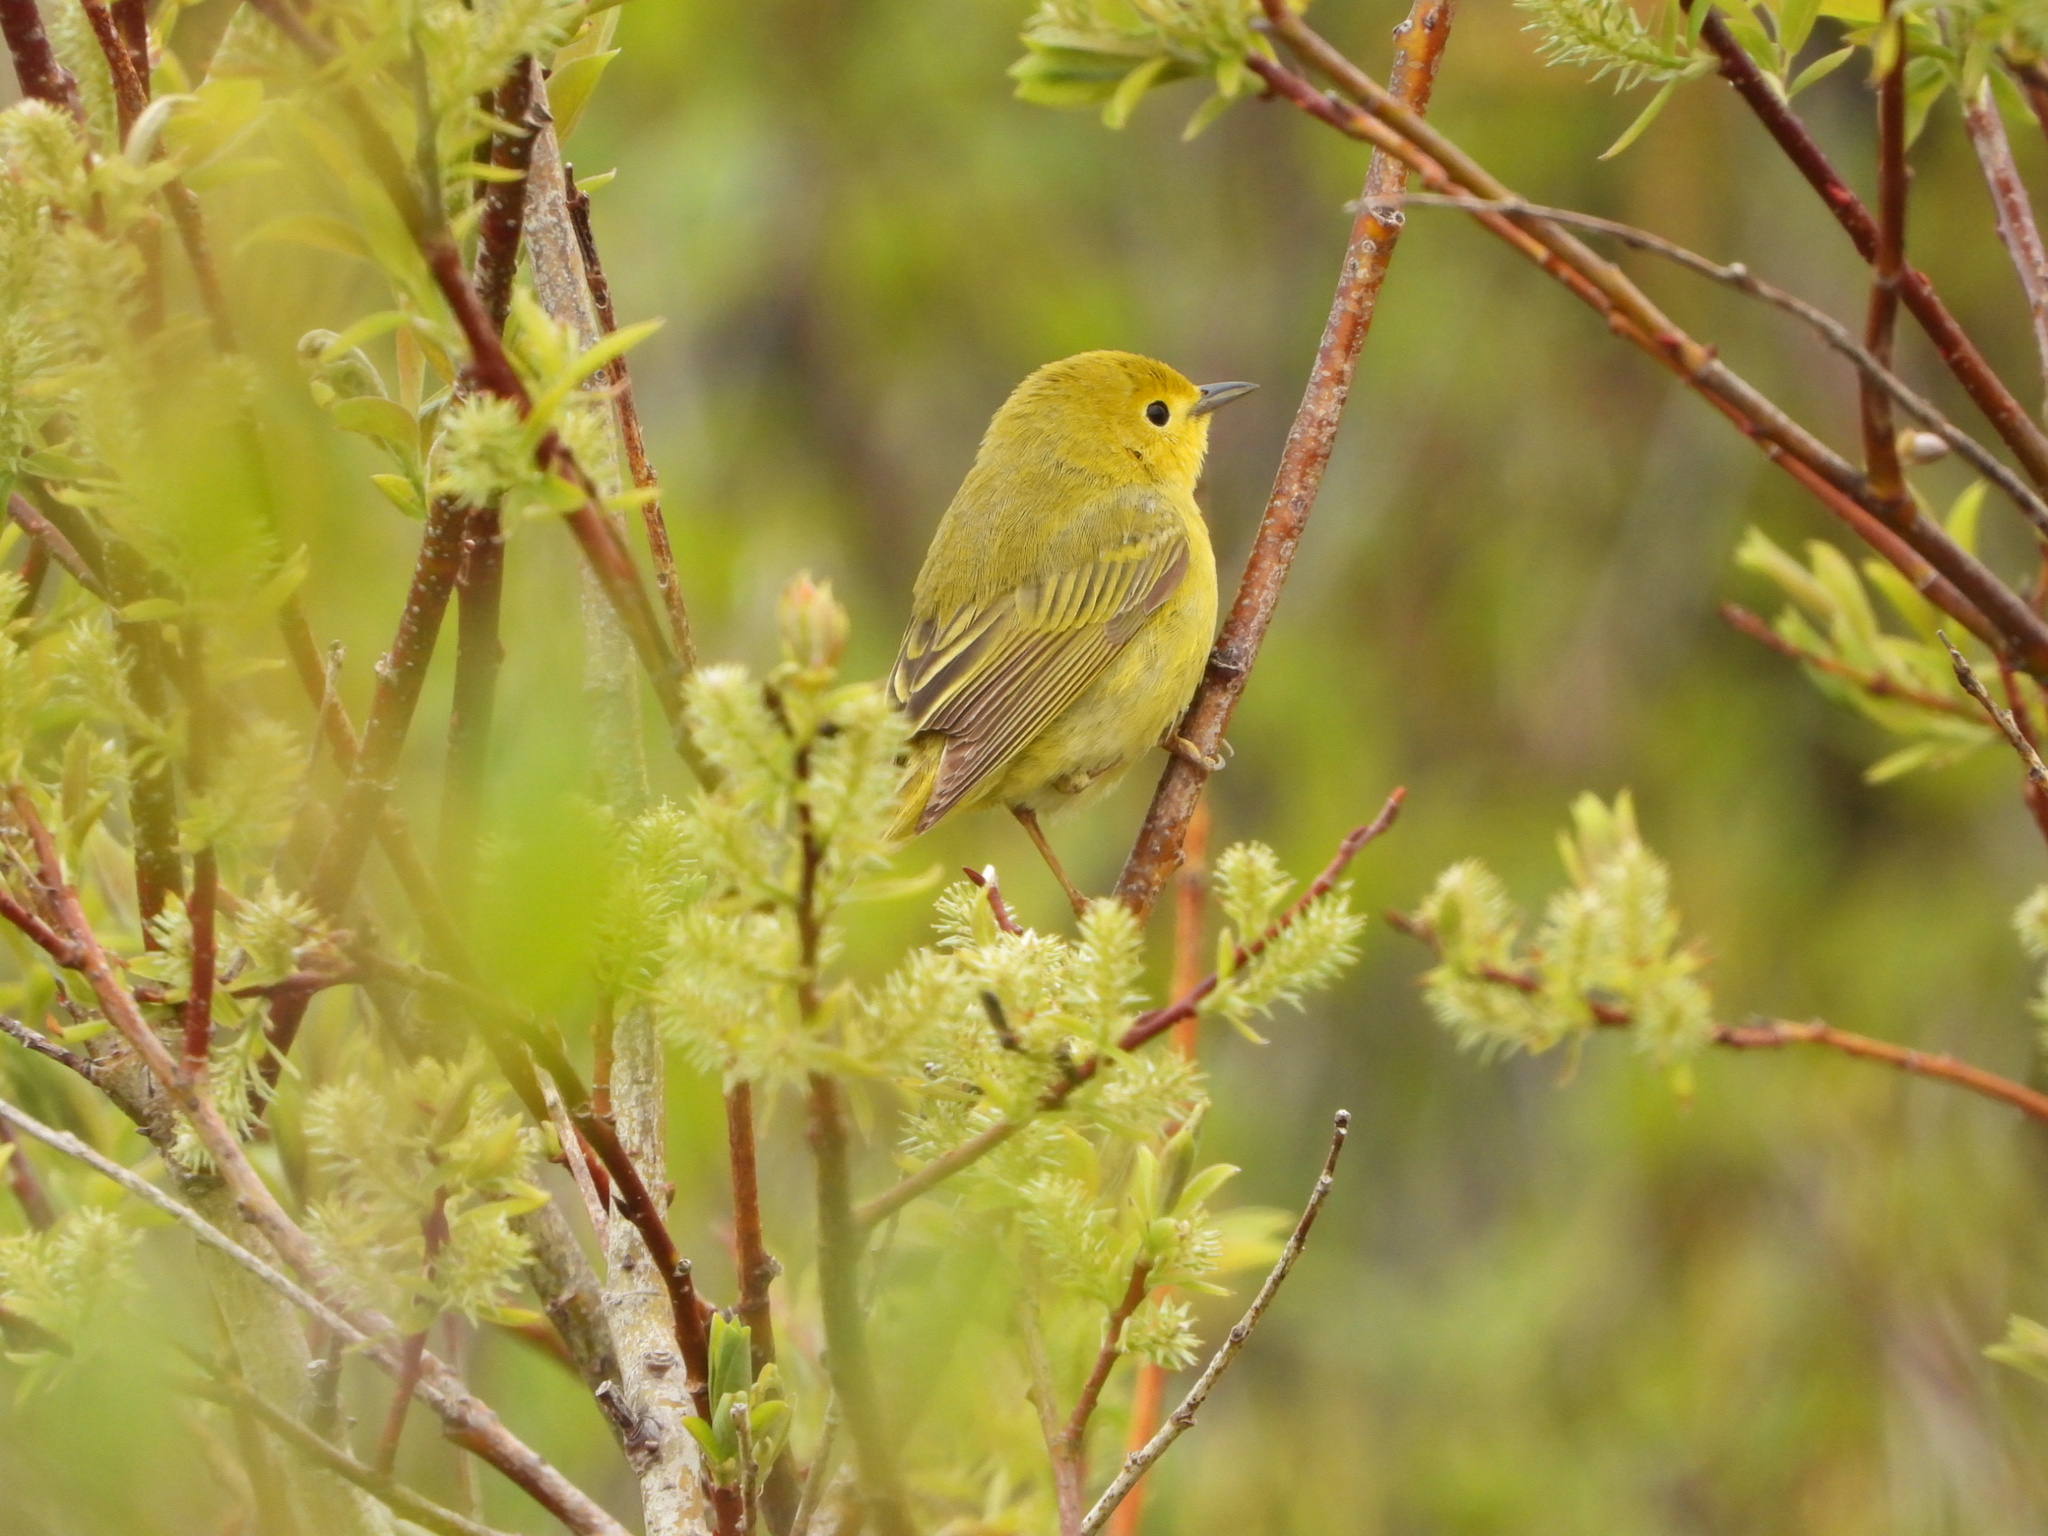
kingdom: Animalia
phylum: Chordata
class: Aves
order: Passeriformes
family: Parulidae
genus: Setophaga
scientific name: Setophaga petechia
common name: Yellow warbler
